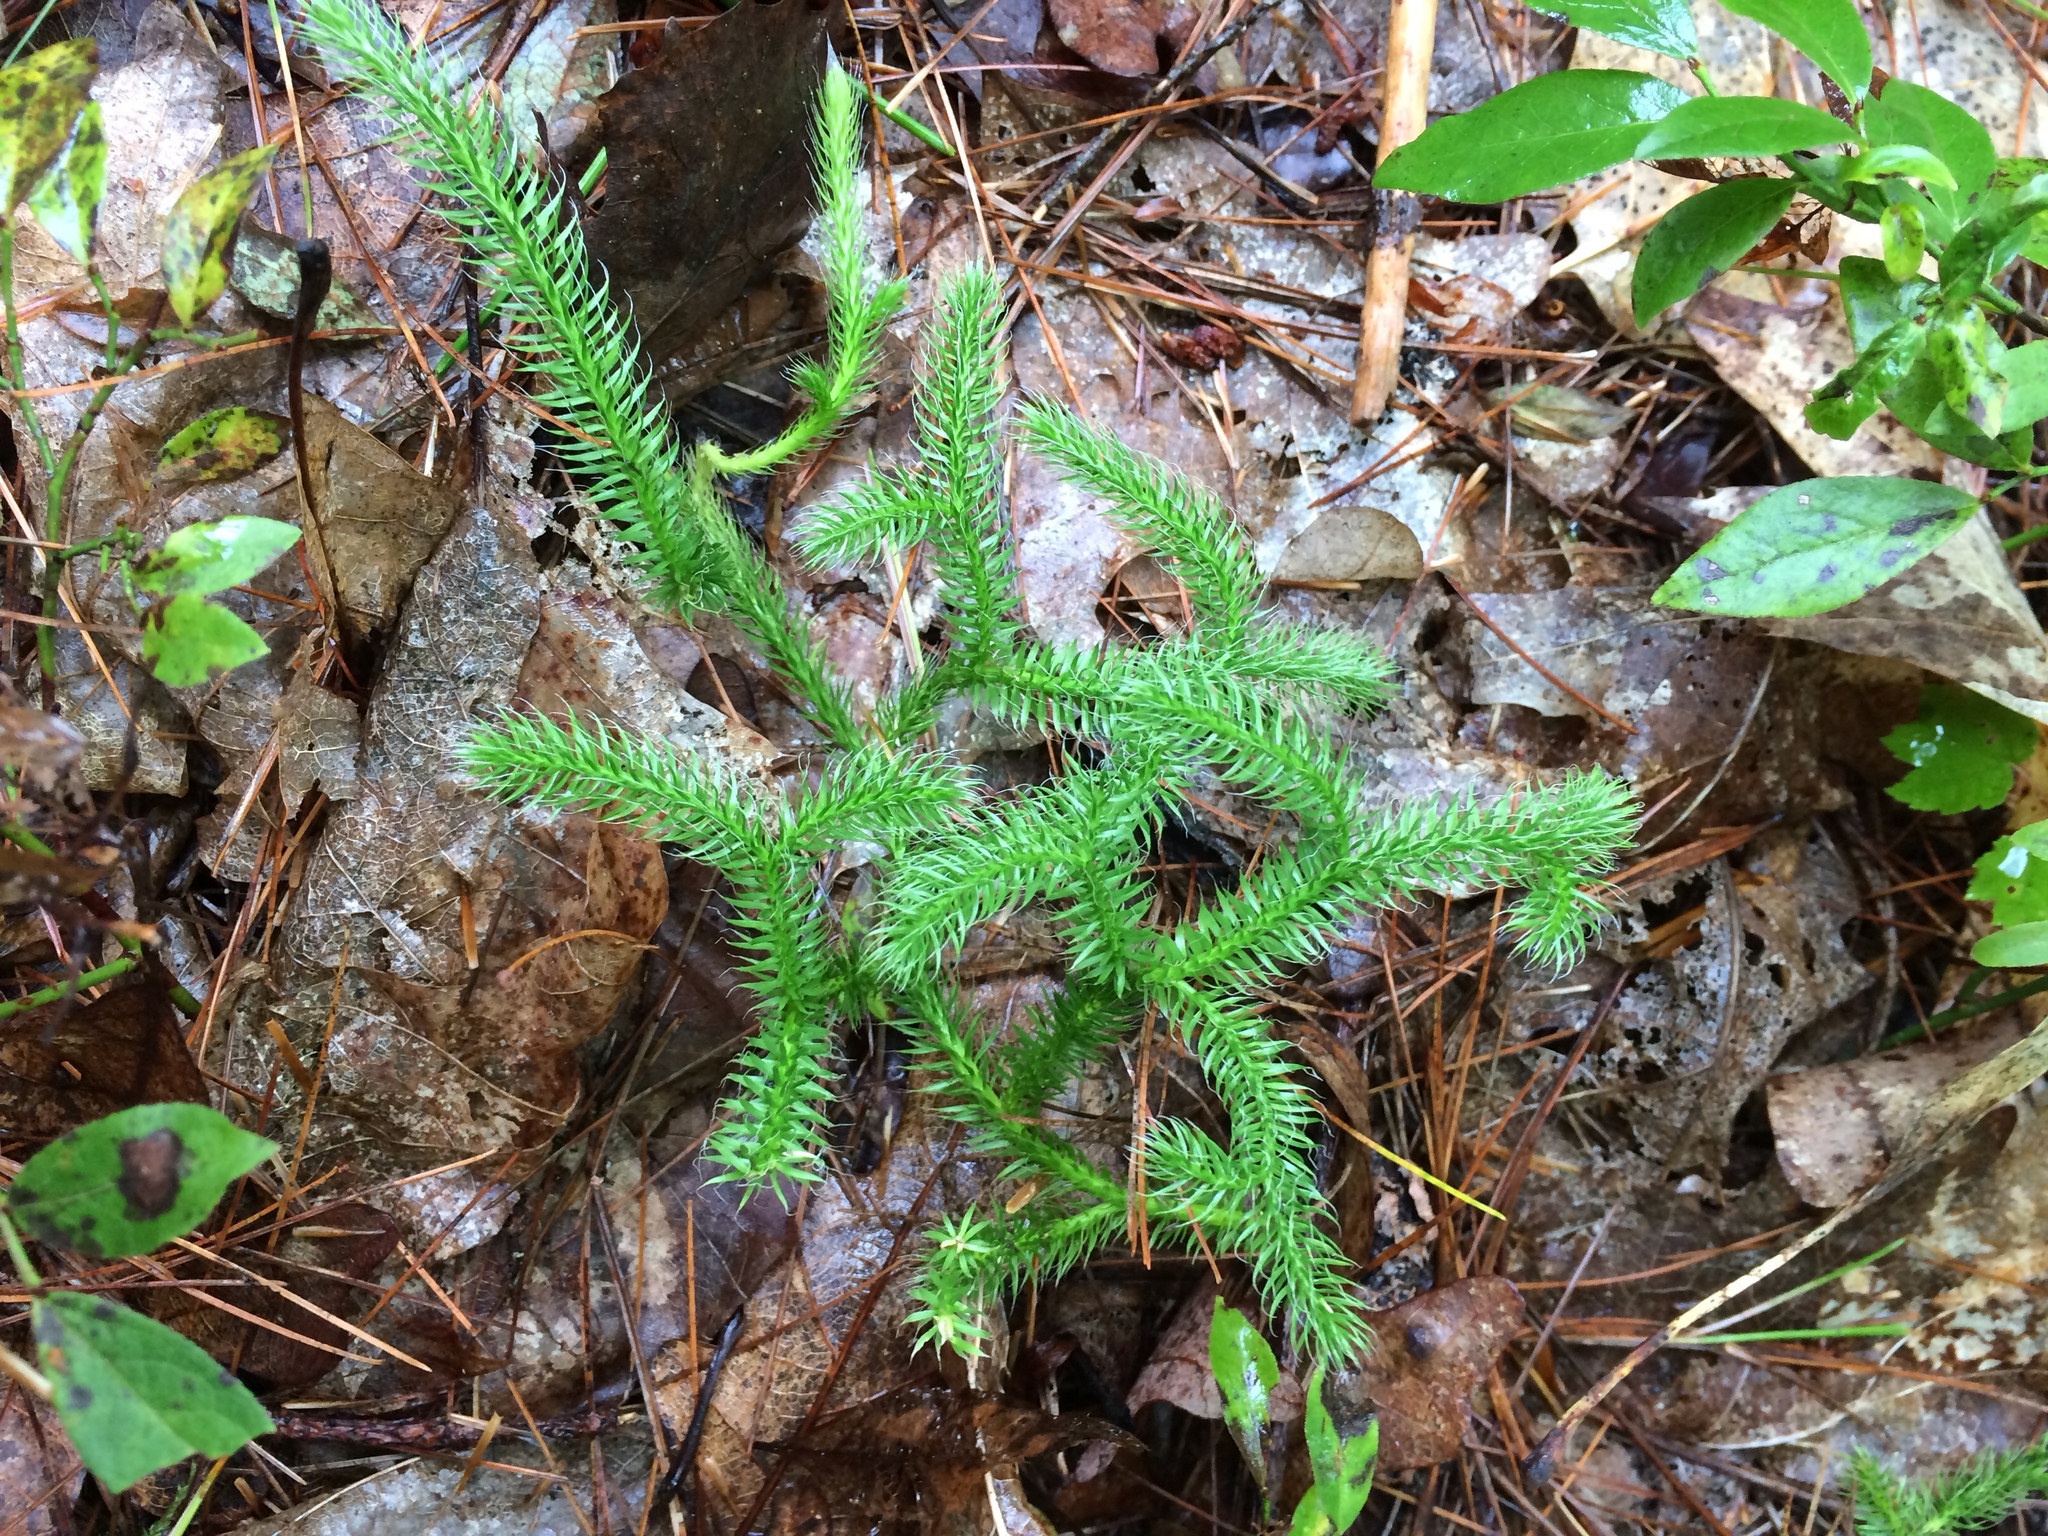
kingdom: Plantae
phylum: Tracheophyta
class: Lycopodiopsida
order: Lycopodiales
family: Lycopodiaceae
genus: Lycopodium
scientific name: Lycopodium clavatum
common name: Stag's-horn clubmoss
